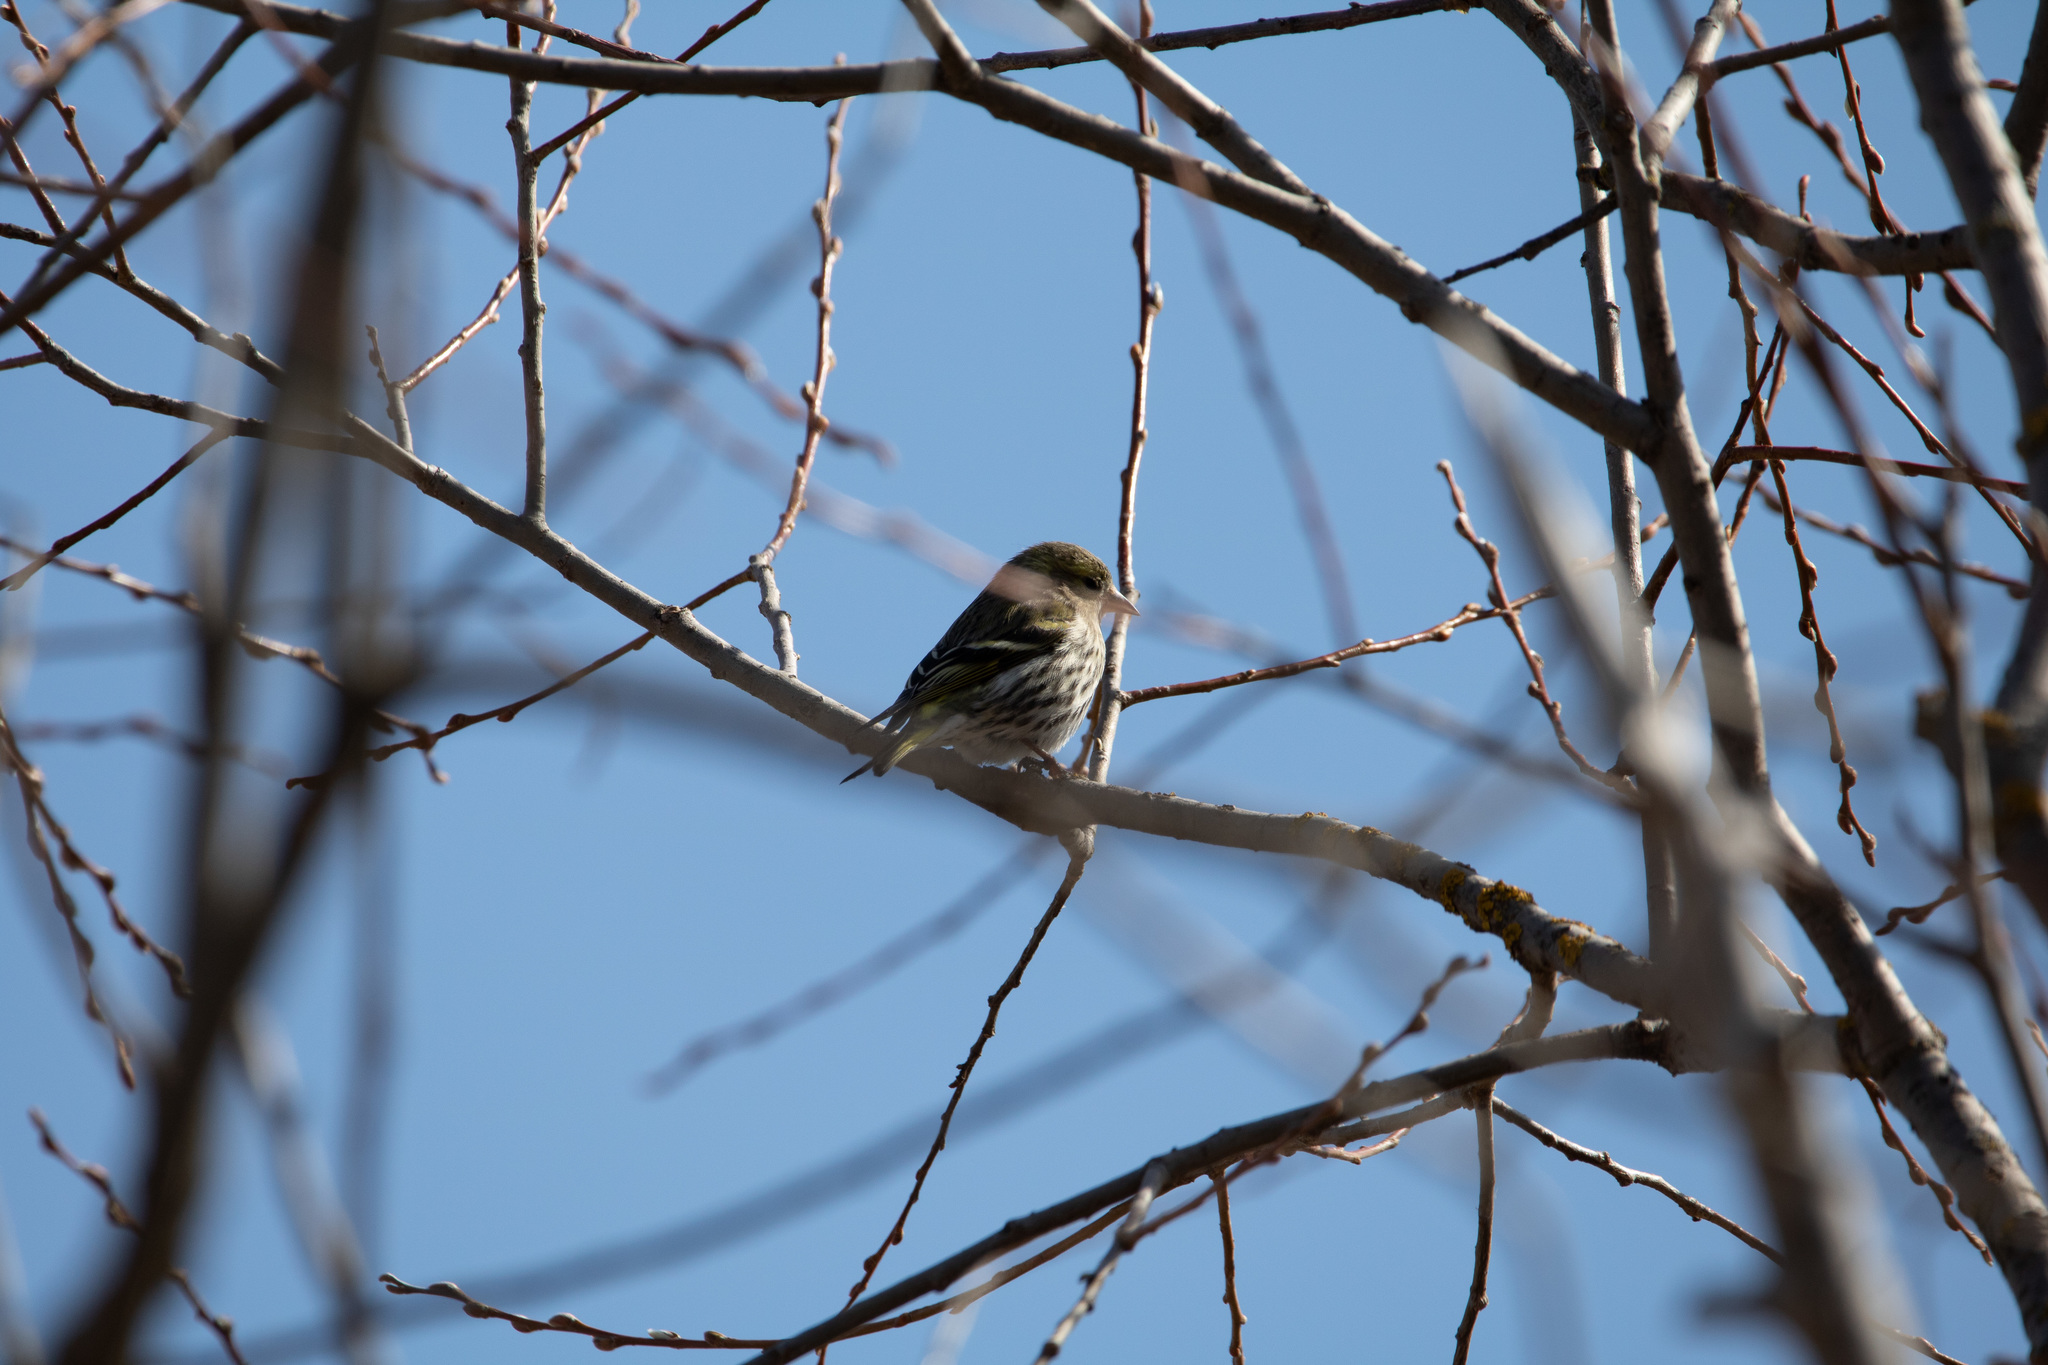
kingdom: Animalia
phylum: Chordata
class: Aves
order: Passeriformes
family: Fringillidae
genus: Spinus
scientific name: Spinus spinus
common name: Eurasian siskin
